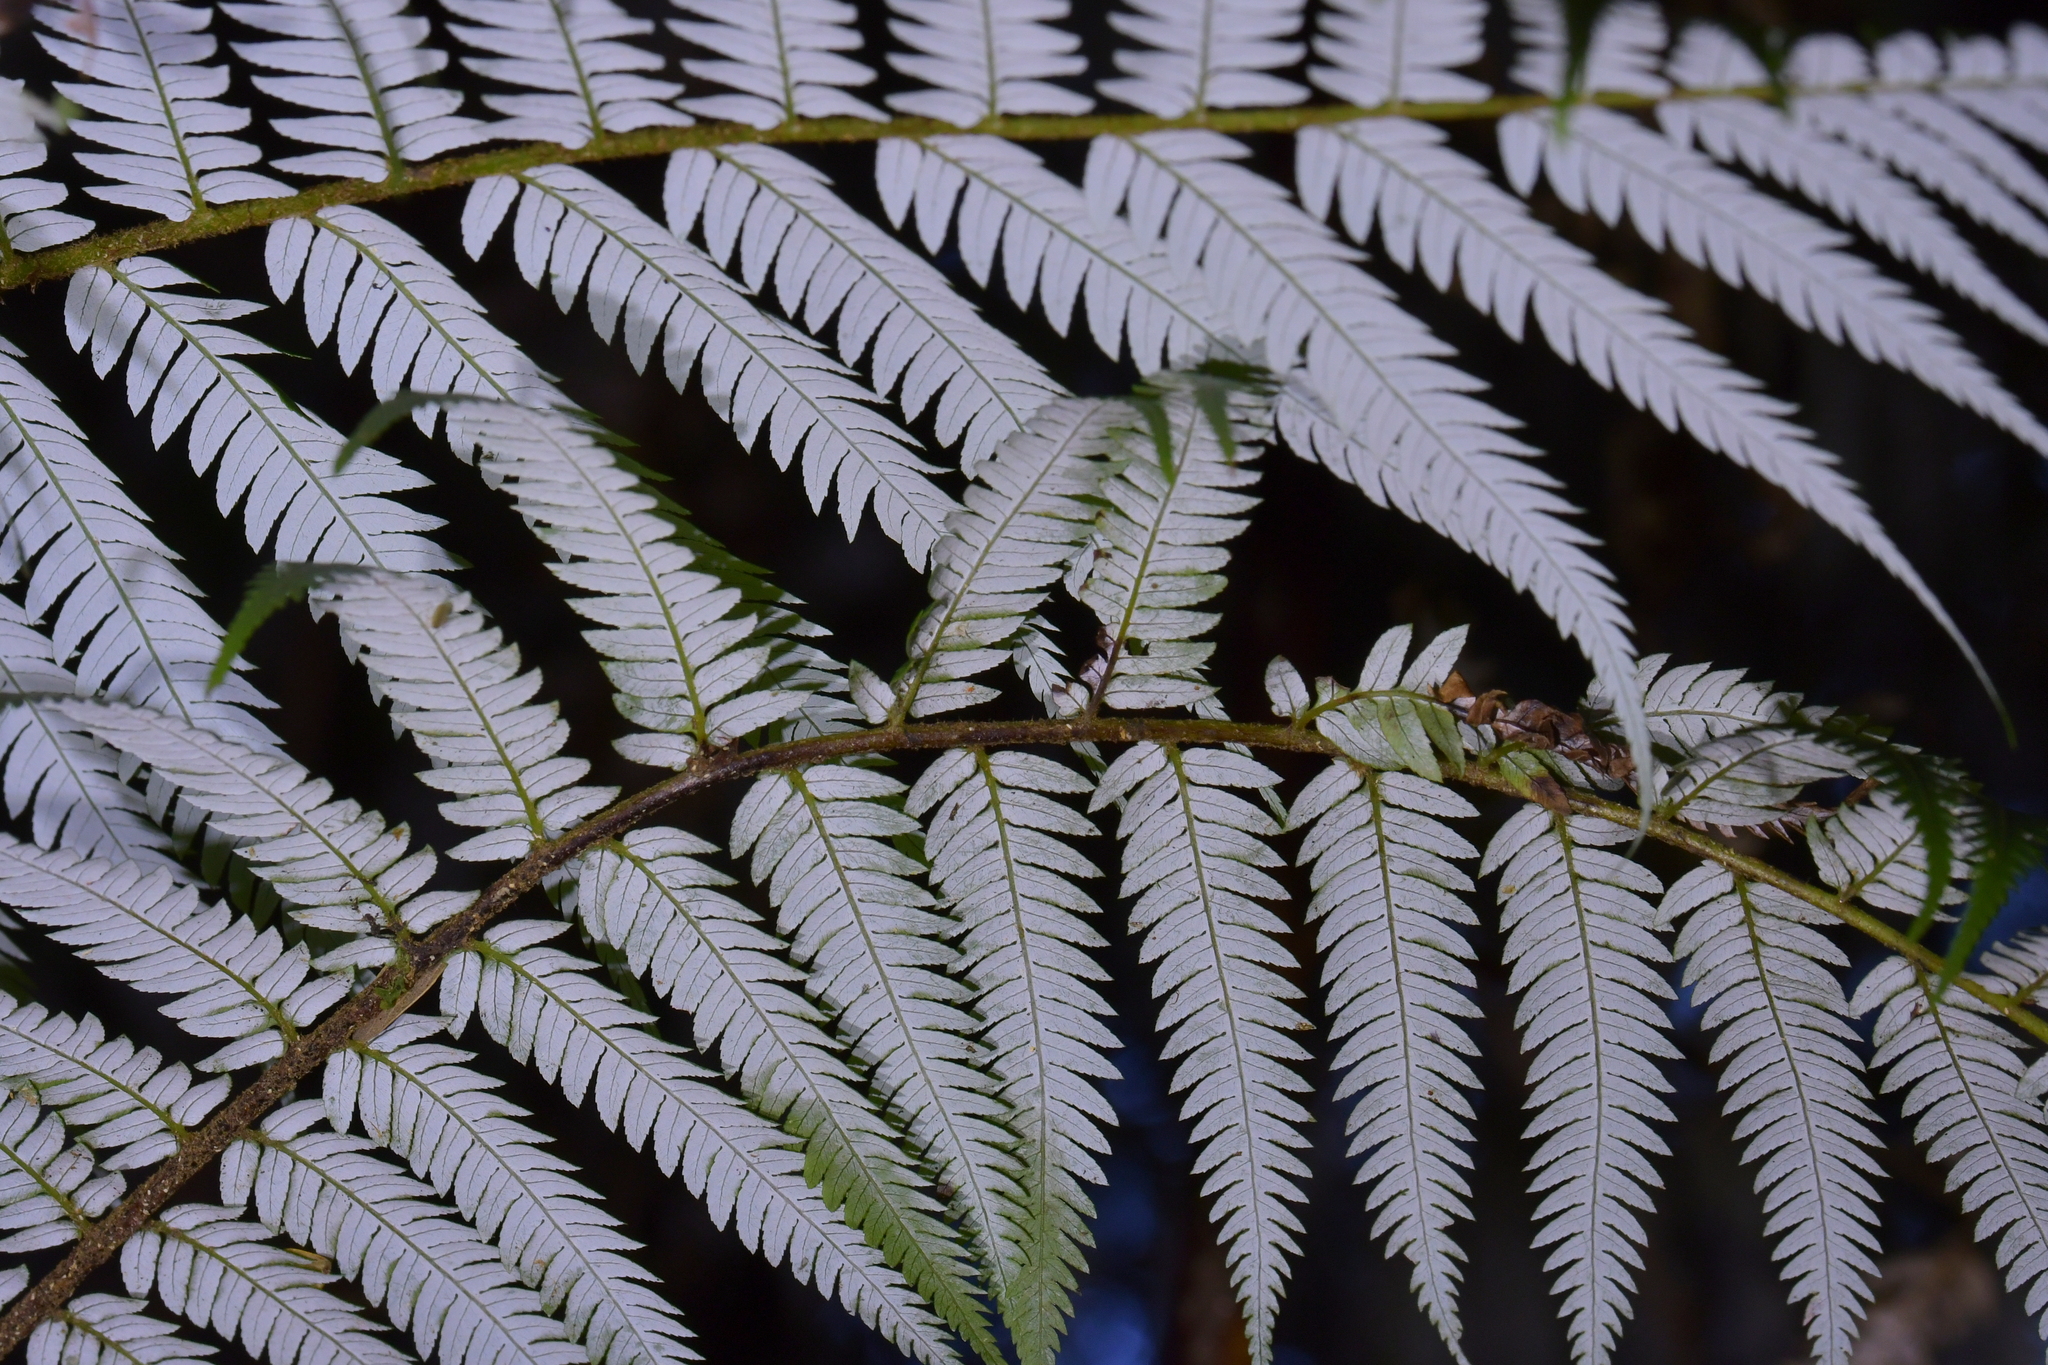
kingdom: Plantae
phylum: Tracheophyta
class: Polypodiopsida
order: Cyatheales
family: Cyatheaceae
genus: Alsophila
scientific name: Alsophila dealbata
